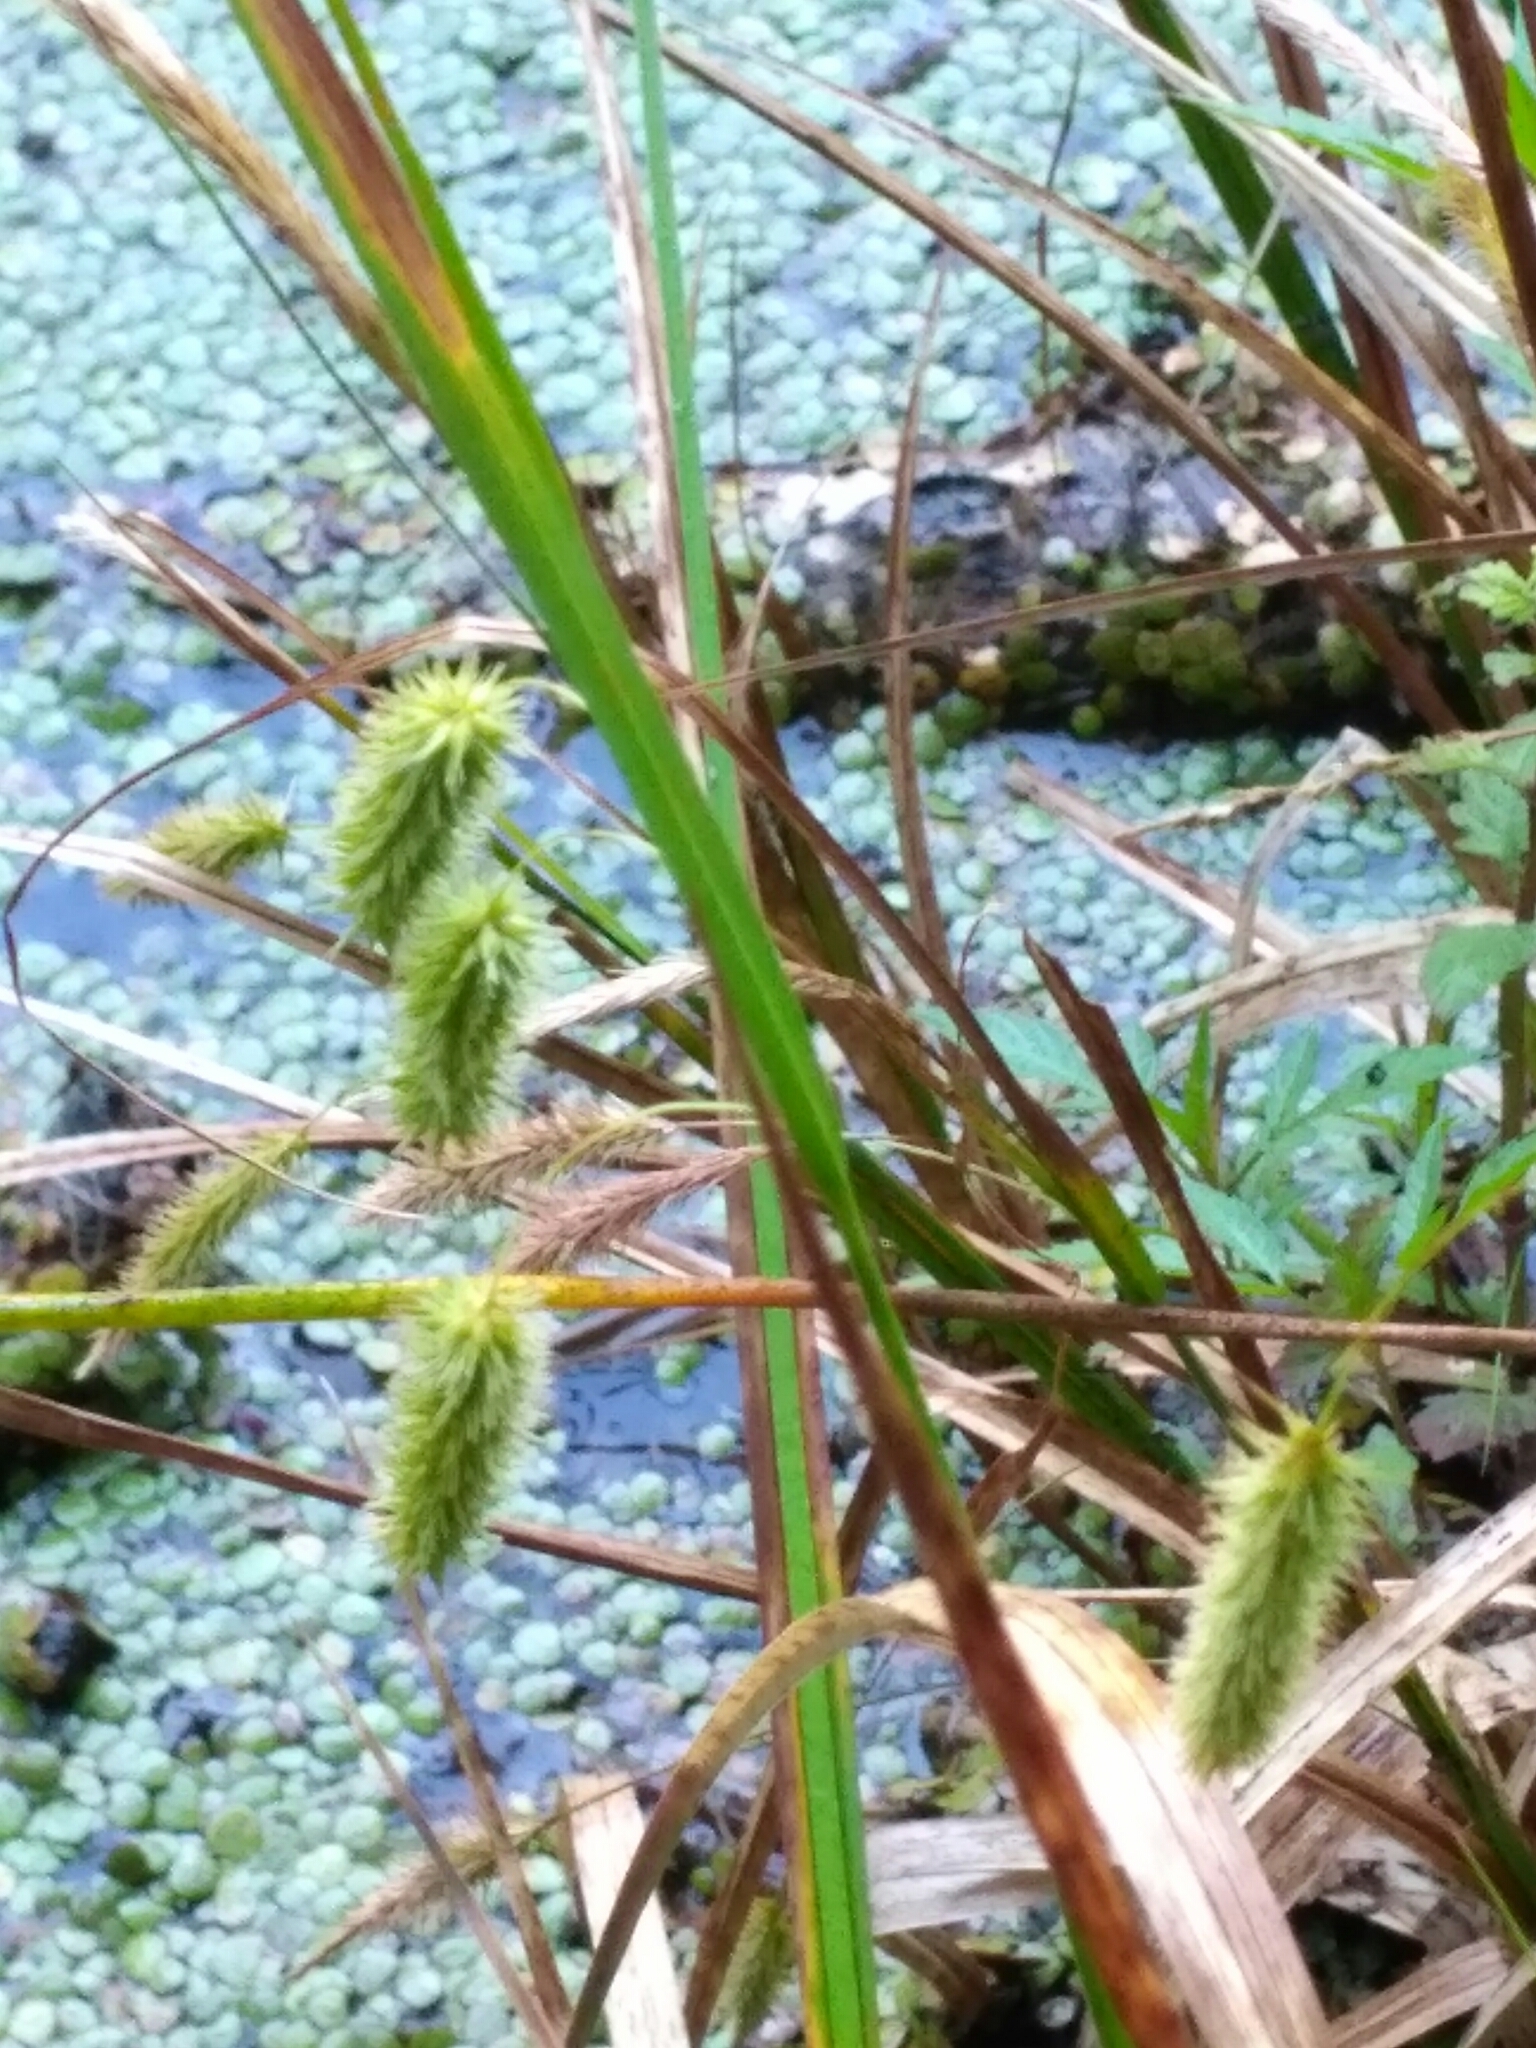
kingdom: Plantae
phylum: Tracheophyta
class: Liliopsida
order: Poales
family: Cyperaceae
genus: Carex
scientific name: Carex pseudocyperus
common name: Cyperus sedge
